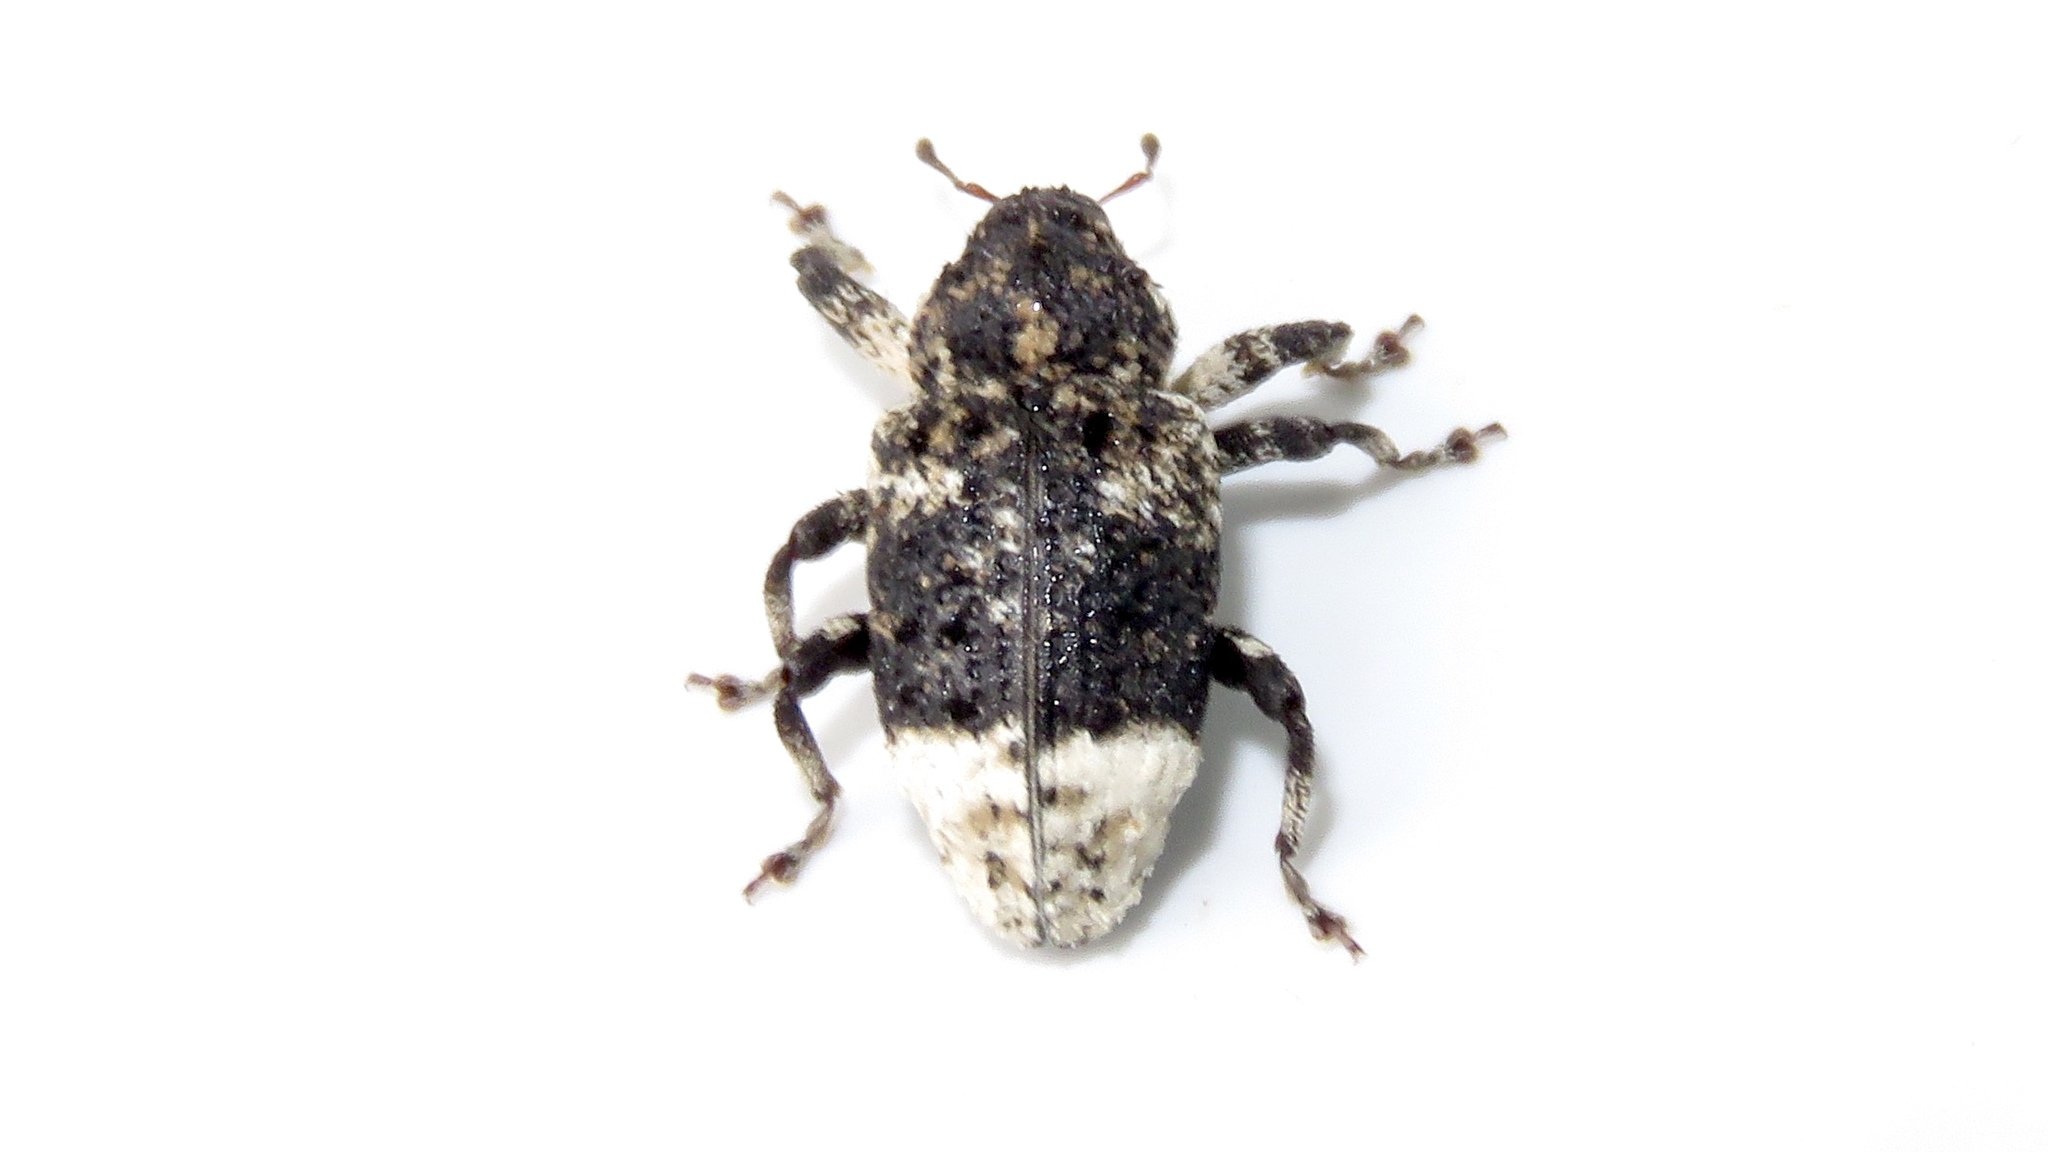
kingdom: Animalia
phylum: Arthropoda
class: Insecta
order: Coleoptera
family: Curculionidae
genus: Cryptorhynchus
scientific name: Cryptorhynchus lapathi
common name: Weevil
